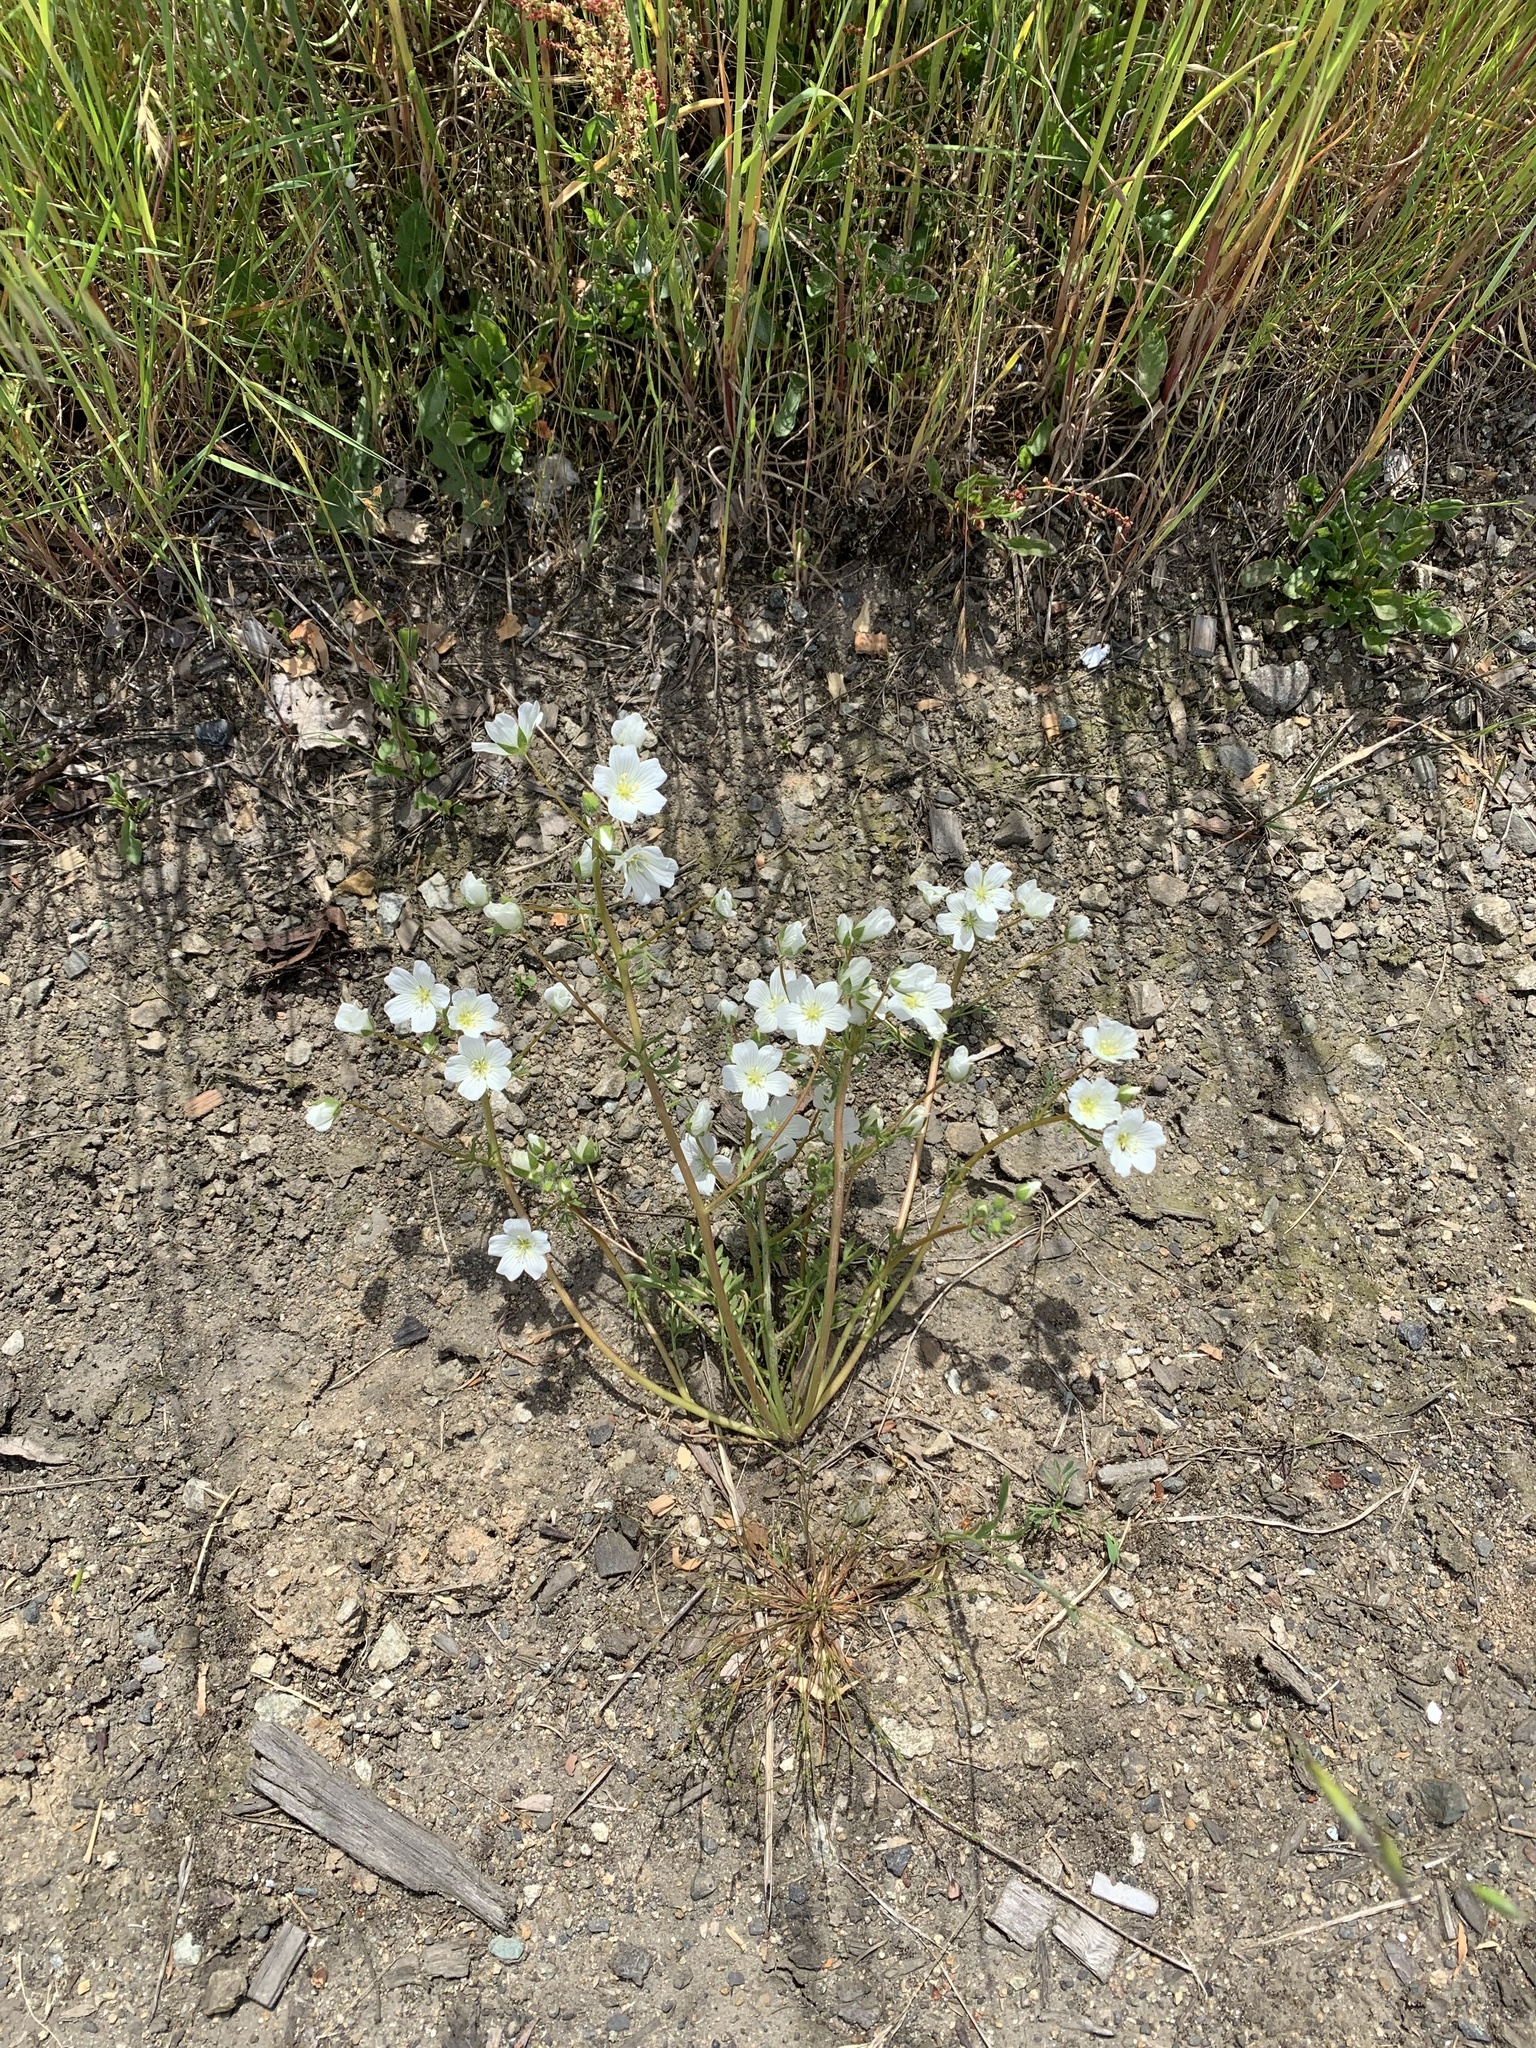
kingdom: Plantae
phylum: Tracheophyta
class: Magnoliopsida
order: Brassicales
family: Limnanthaceae
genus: Limnanthes
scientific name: Limnanthes alba
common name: Meadowfoam
